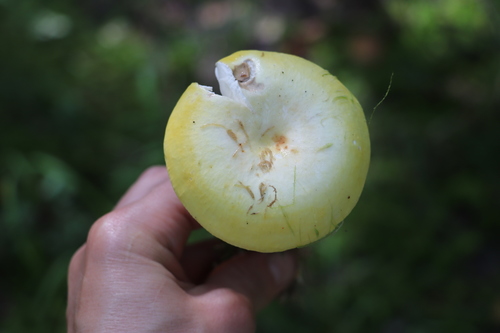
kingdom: Fungi
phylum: Basidiomycota
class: Agaricomycetes
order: Russulales
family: Russulaceae
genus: Russula
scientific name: Russula claroflava
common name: The yellow swamp brittlegill
